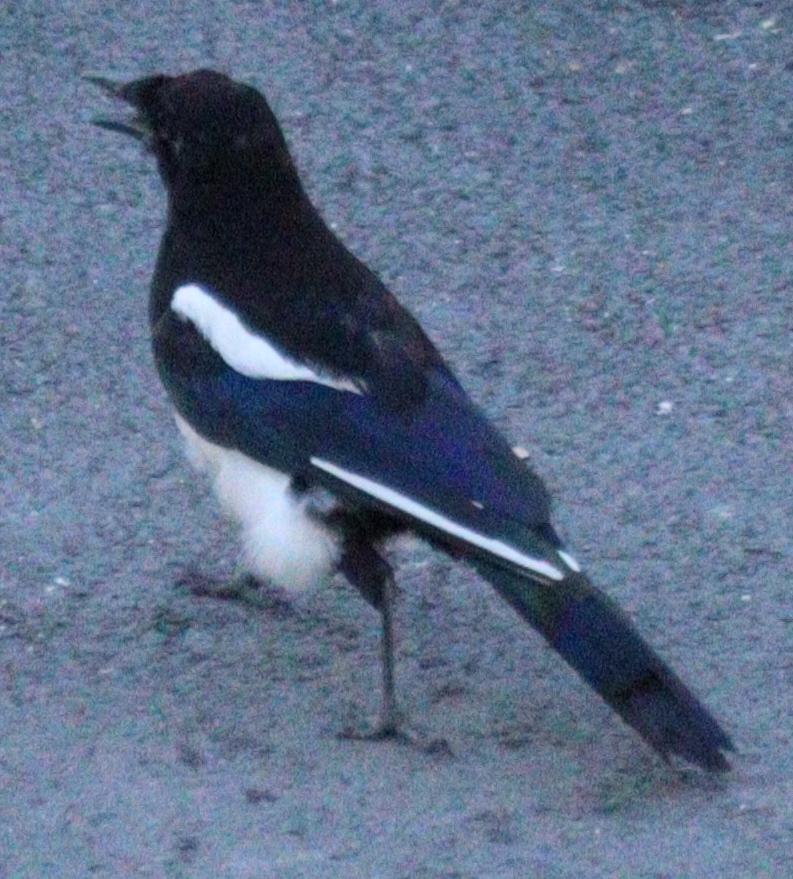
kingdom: Animalia
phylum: Chordata
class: Aves
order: Passeriformes
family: Corvidae
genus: Pica
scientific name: Pica pica
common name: Eurasian magpie
